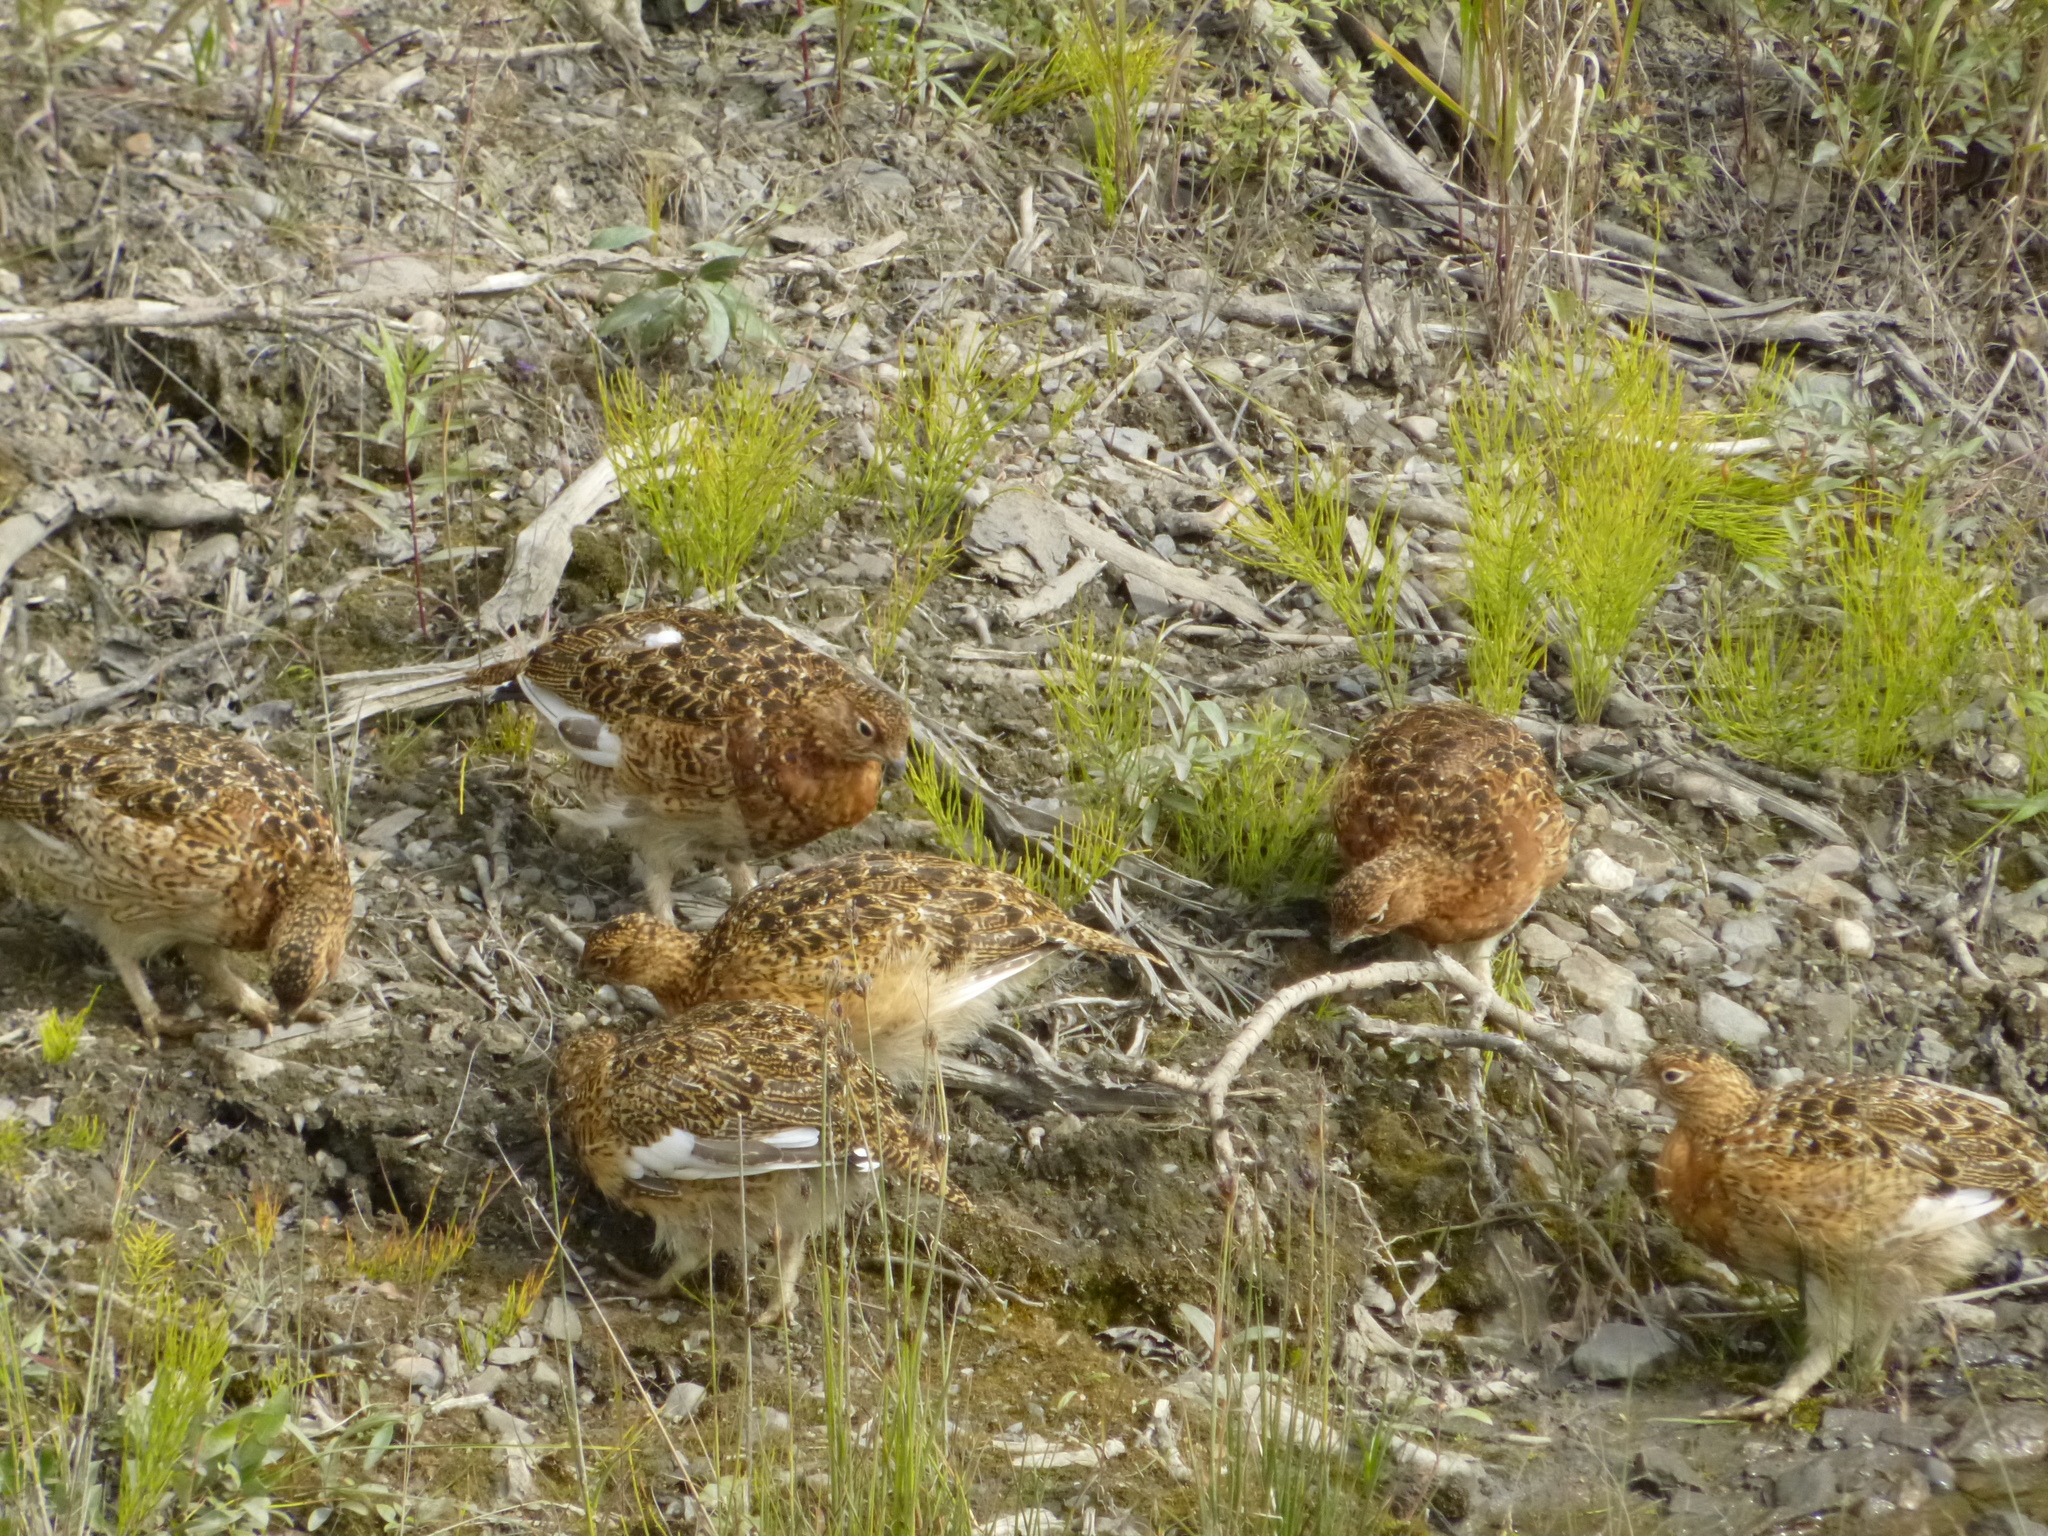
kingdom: Animalia
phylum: Chordata
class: Aves
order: Galliformes
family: Phasianidae
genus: Lagopus
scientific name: Lagopus lagopus
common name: Willow ptarmigan
